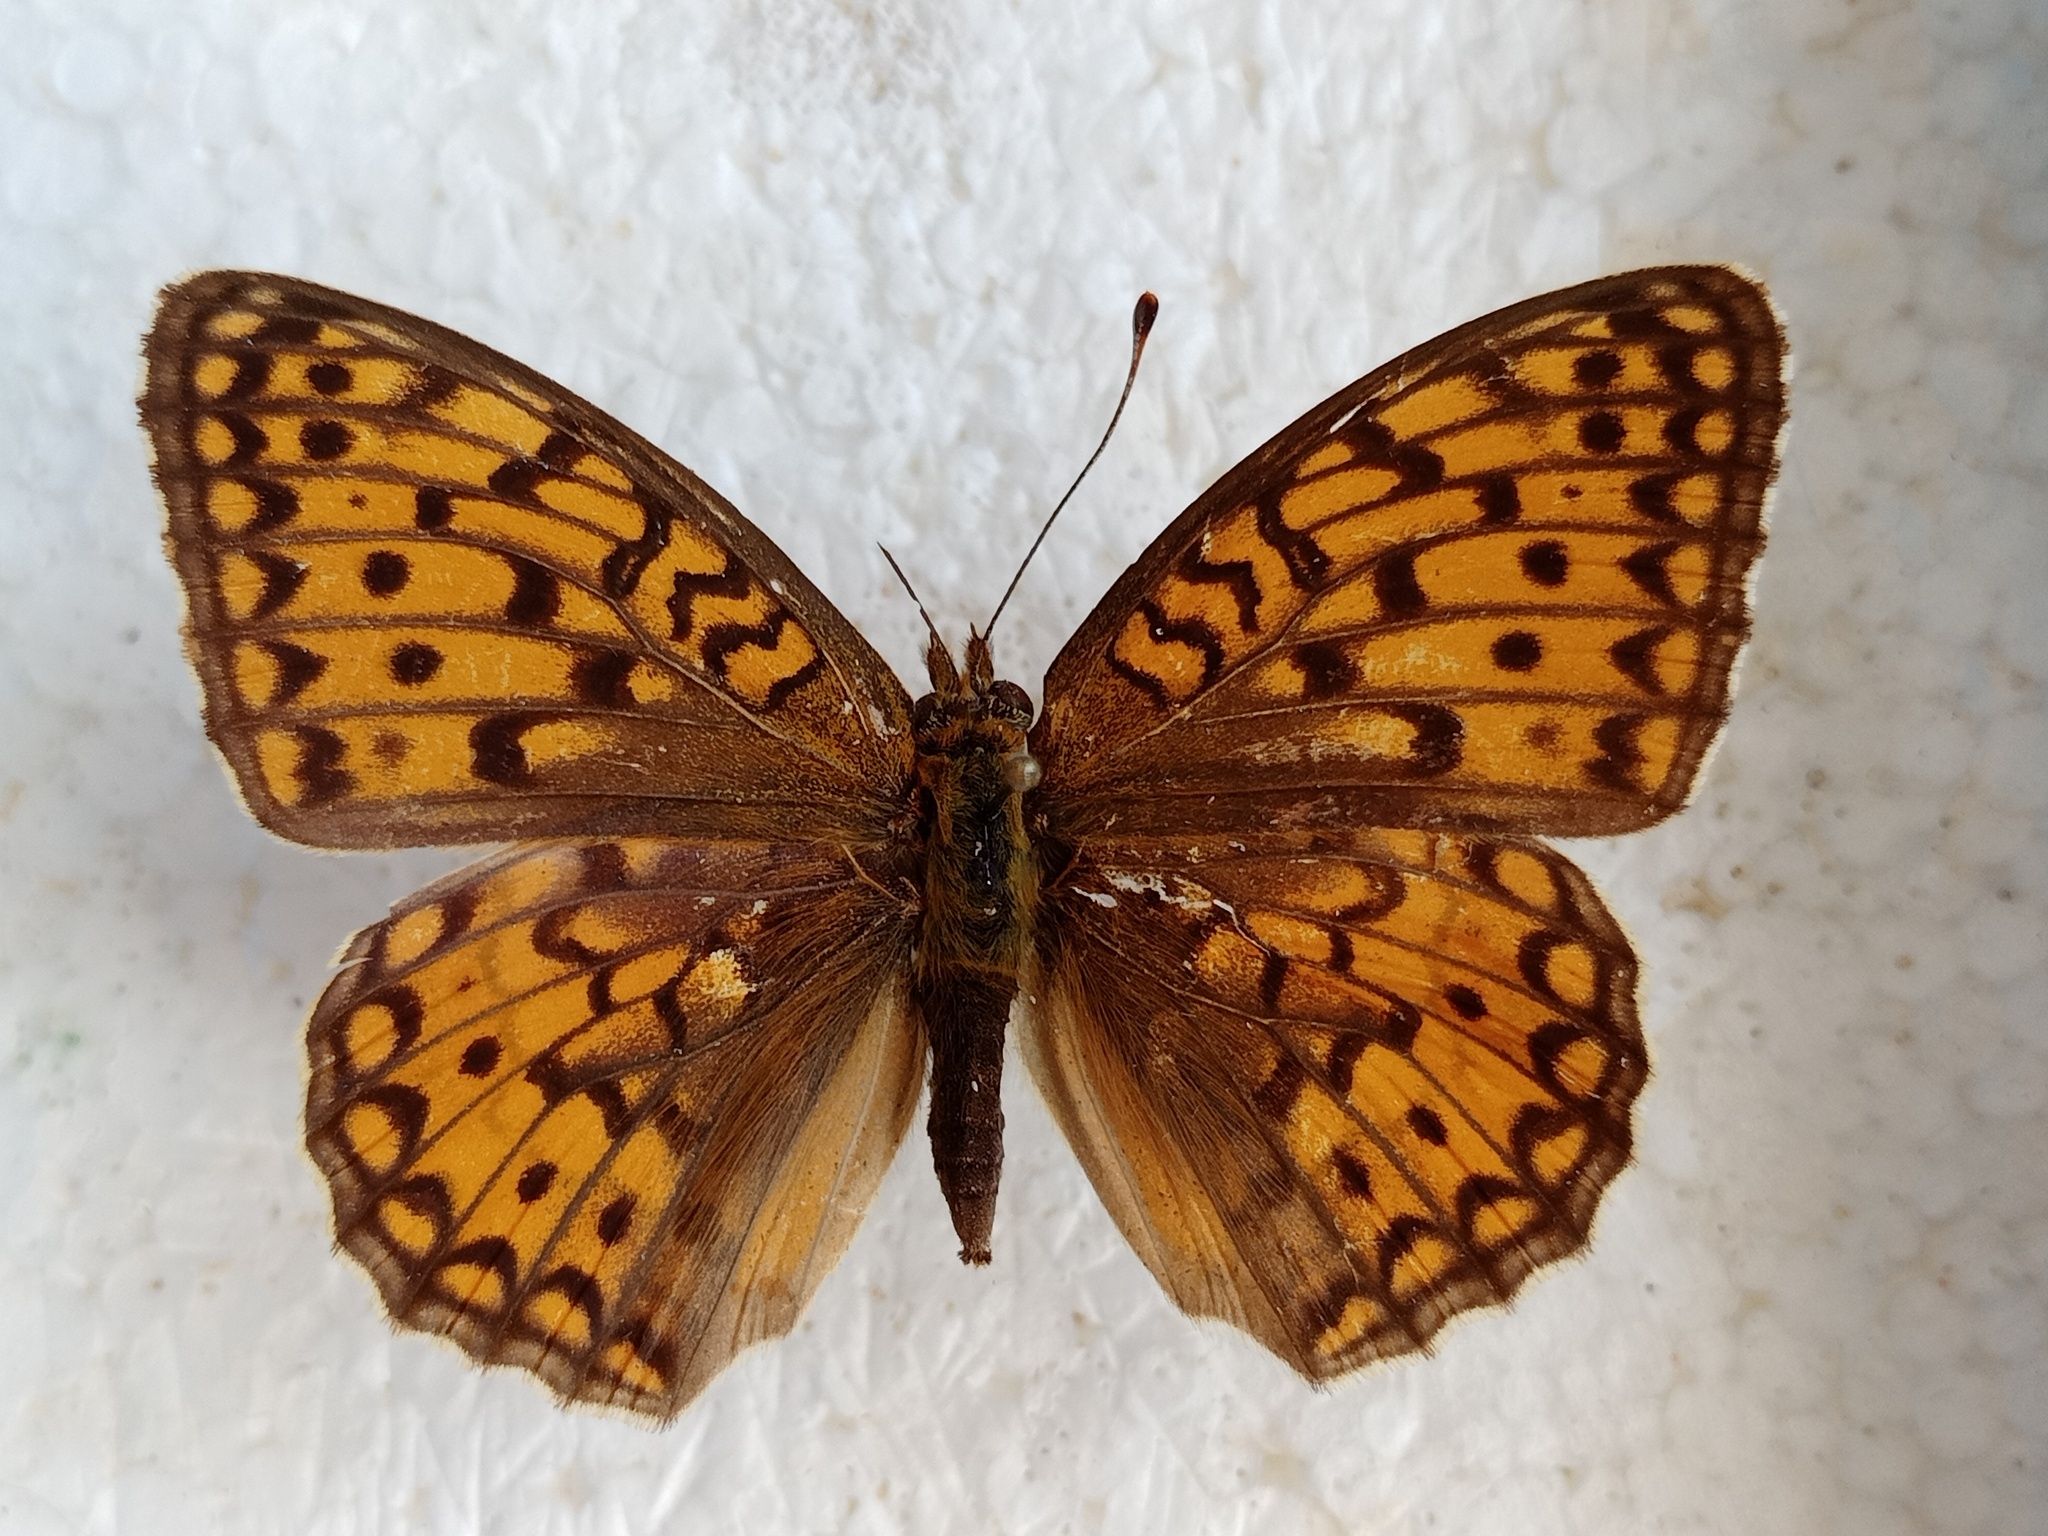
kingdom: Animalia
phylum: Arthropoda
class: Insecta
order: Lepidoptera
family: Nymphalidae
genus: Fabriciana
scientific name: Fabriciana niobe
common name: Niobe fritillary
